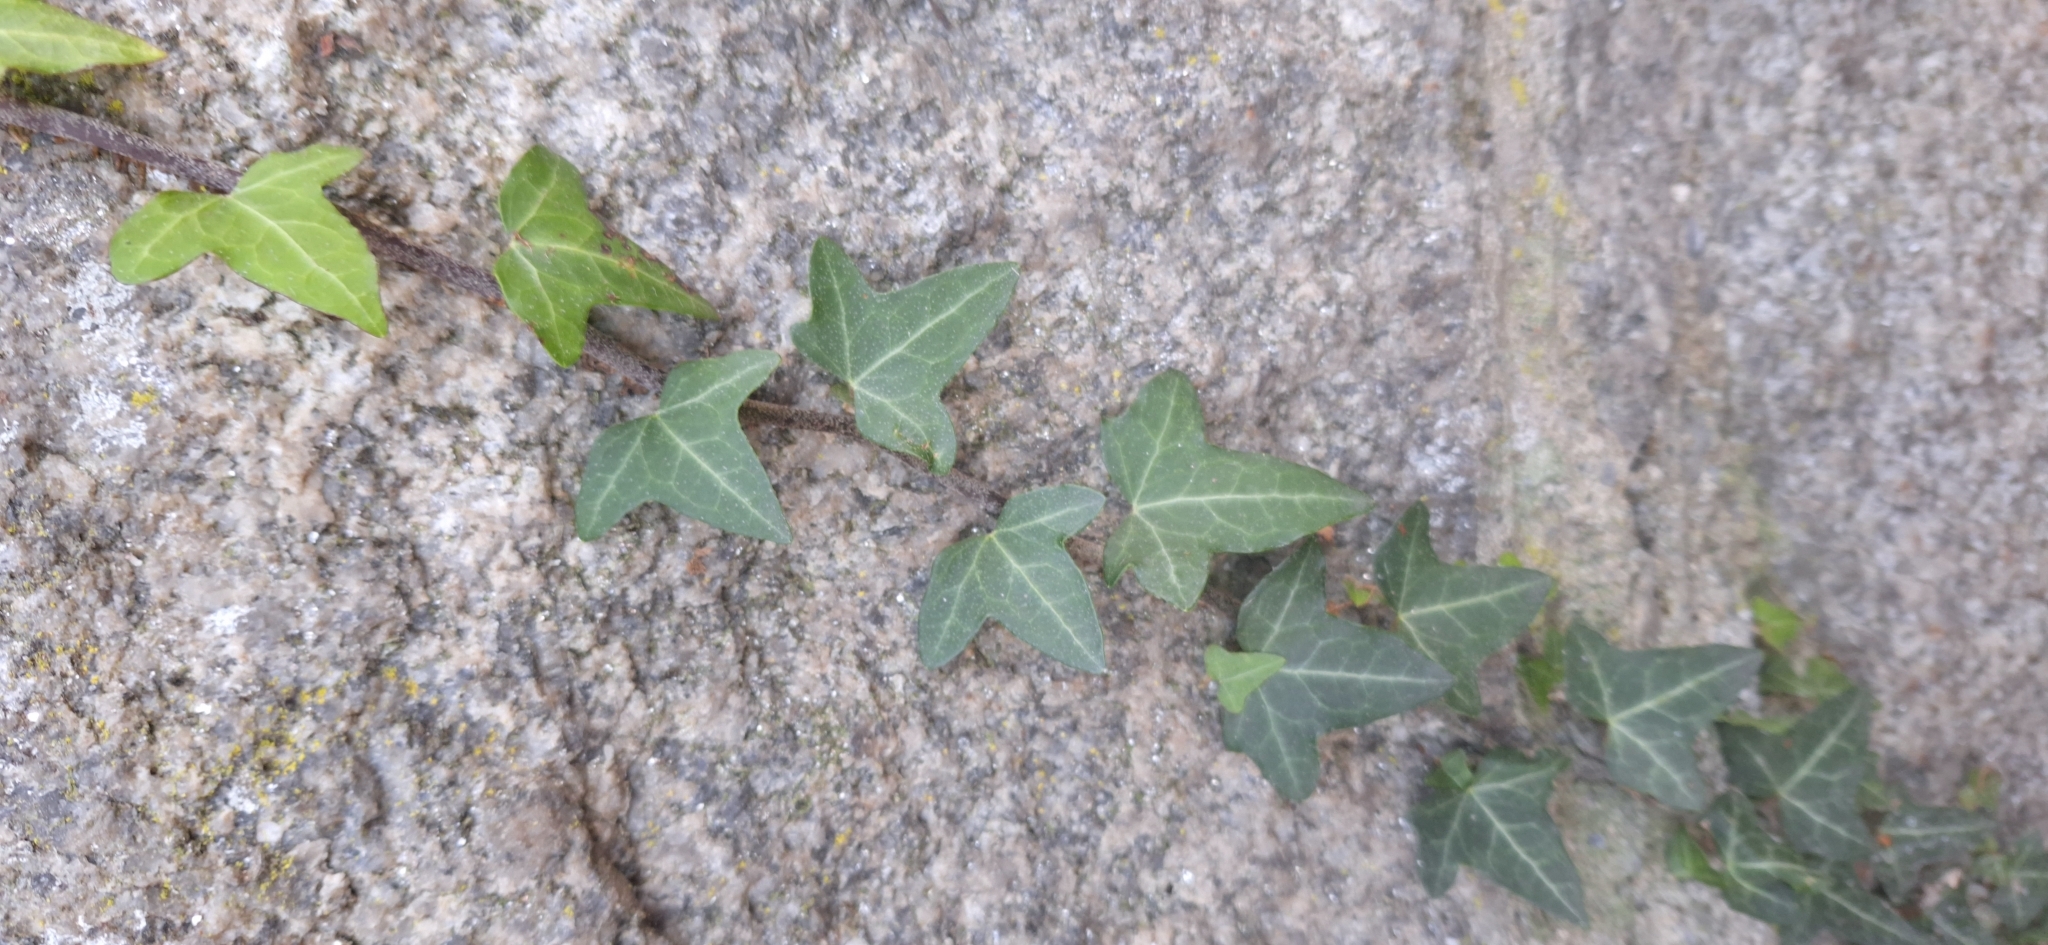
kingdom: Plantae
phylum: Tracheophyta
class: Magnoliopsida
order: Apiales
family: Araliaceae
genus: Hedera
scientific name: Hedera helix
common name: Ivy
